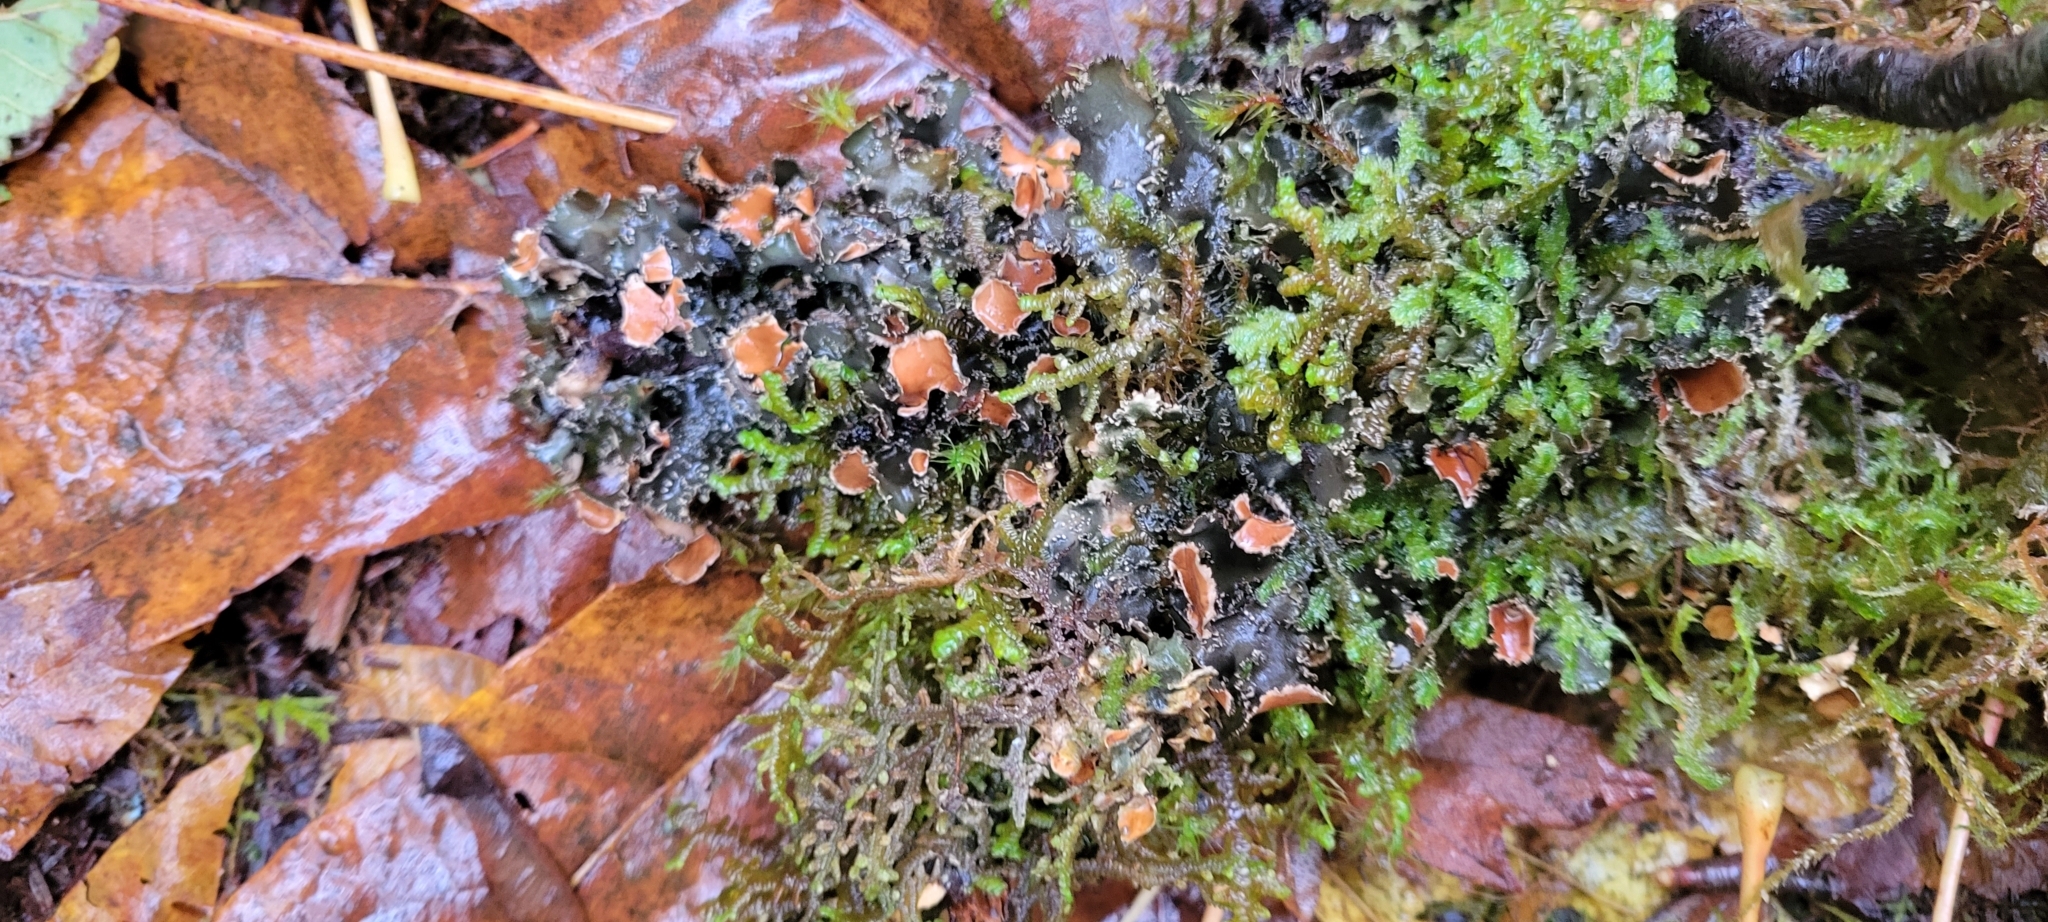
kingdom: Fungi
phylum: Ascomycota
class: Lecanoromycetes
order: Peltigerales
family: Nephromataceae
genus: Nephroma
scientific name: Nephroma helveticum
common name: Fringed kidney lichen
